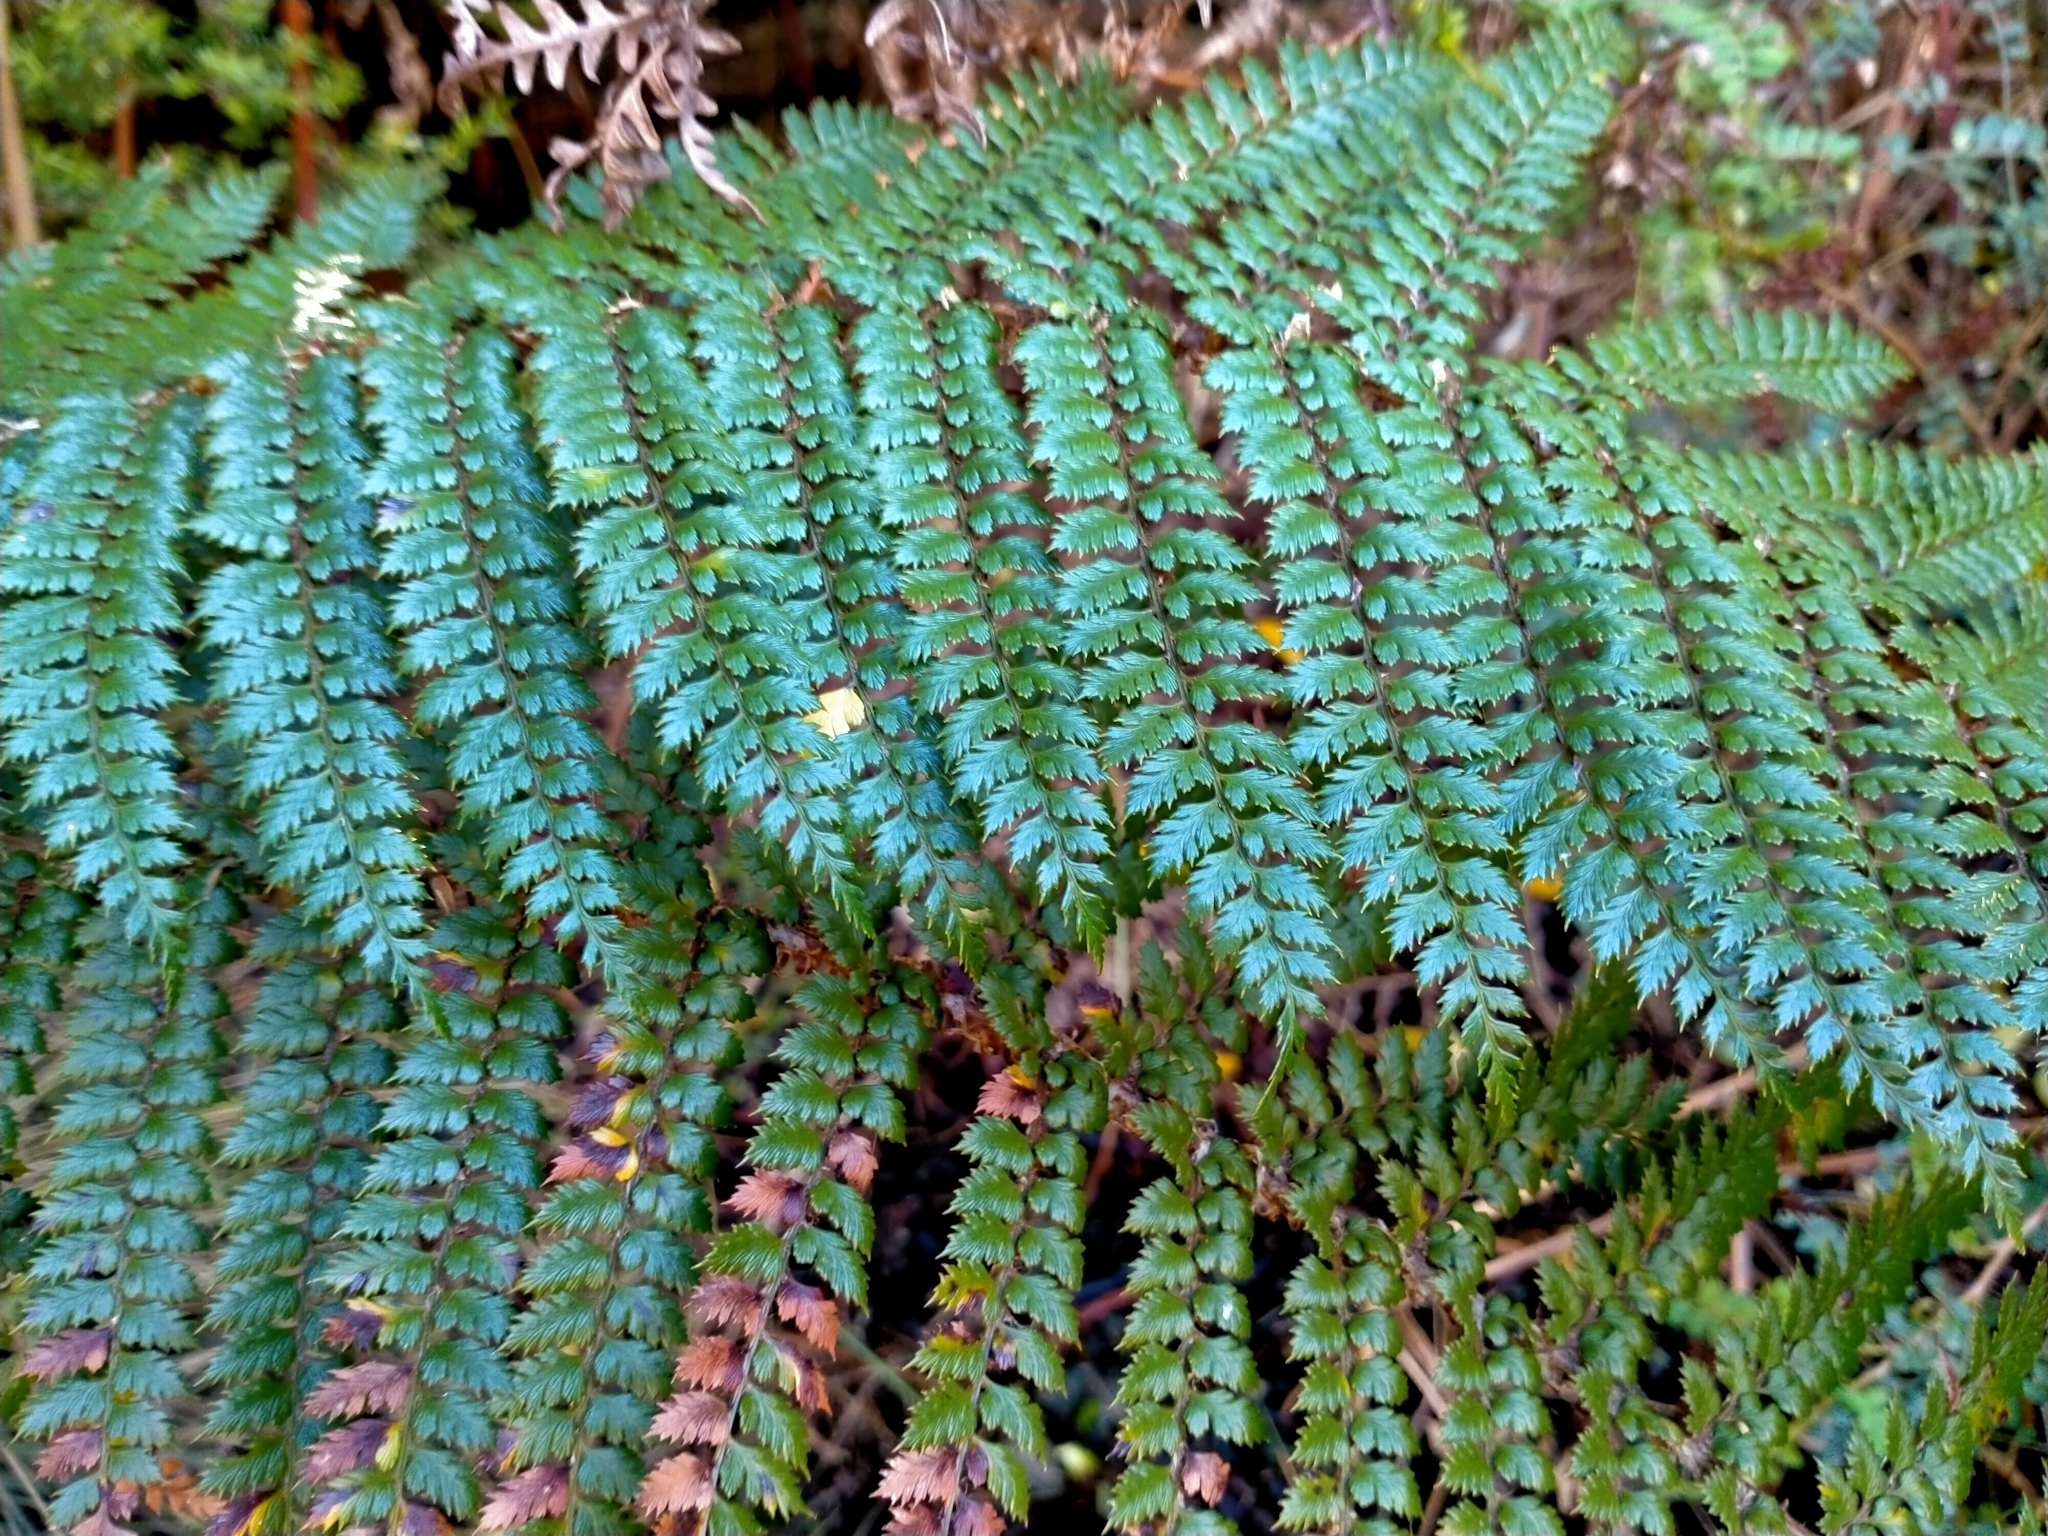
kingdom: Plantae
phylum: Tracheophyta
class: Polypodiopsida
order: Polypodiales
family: Dryopteridaceae
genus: Polystichum
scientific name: Polystichum vestitum
